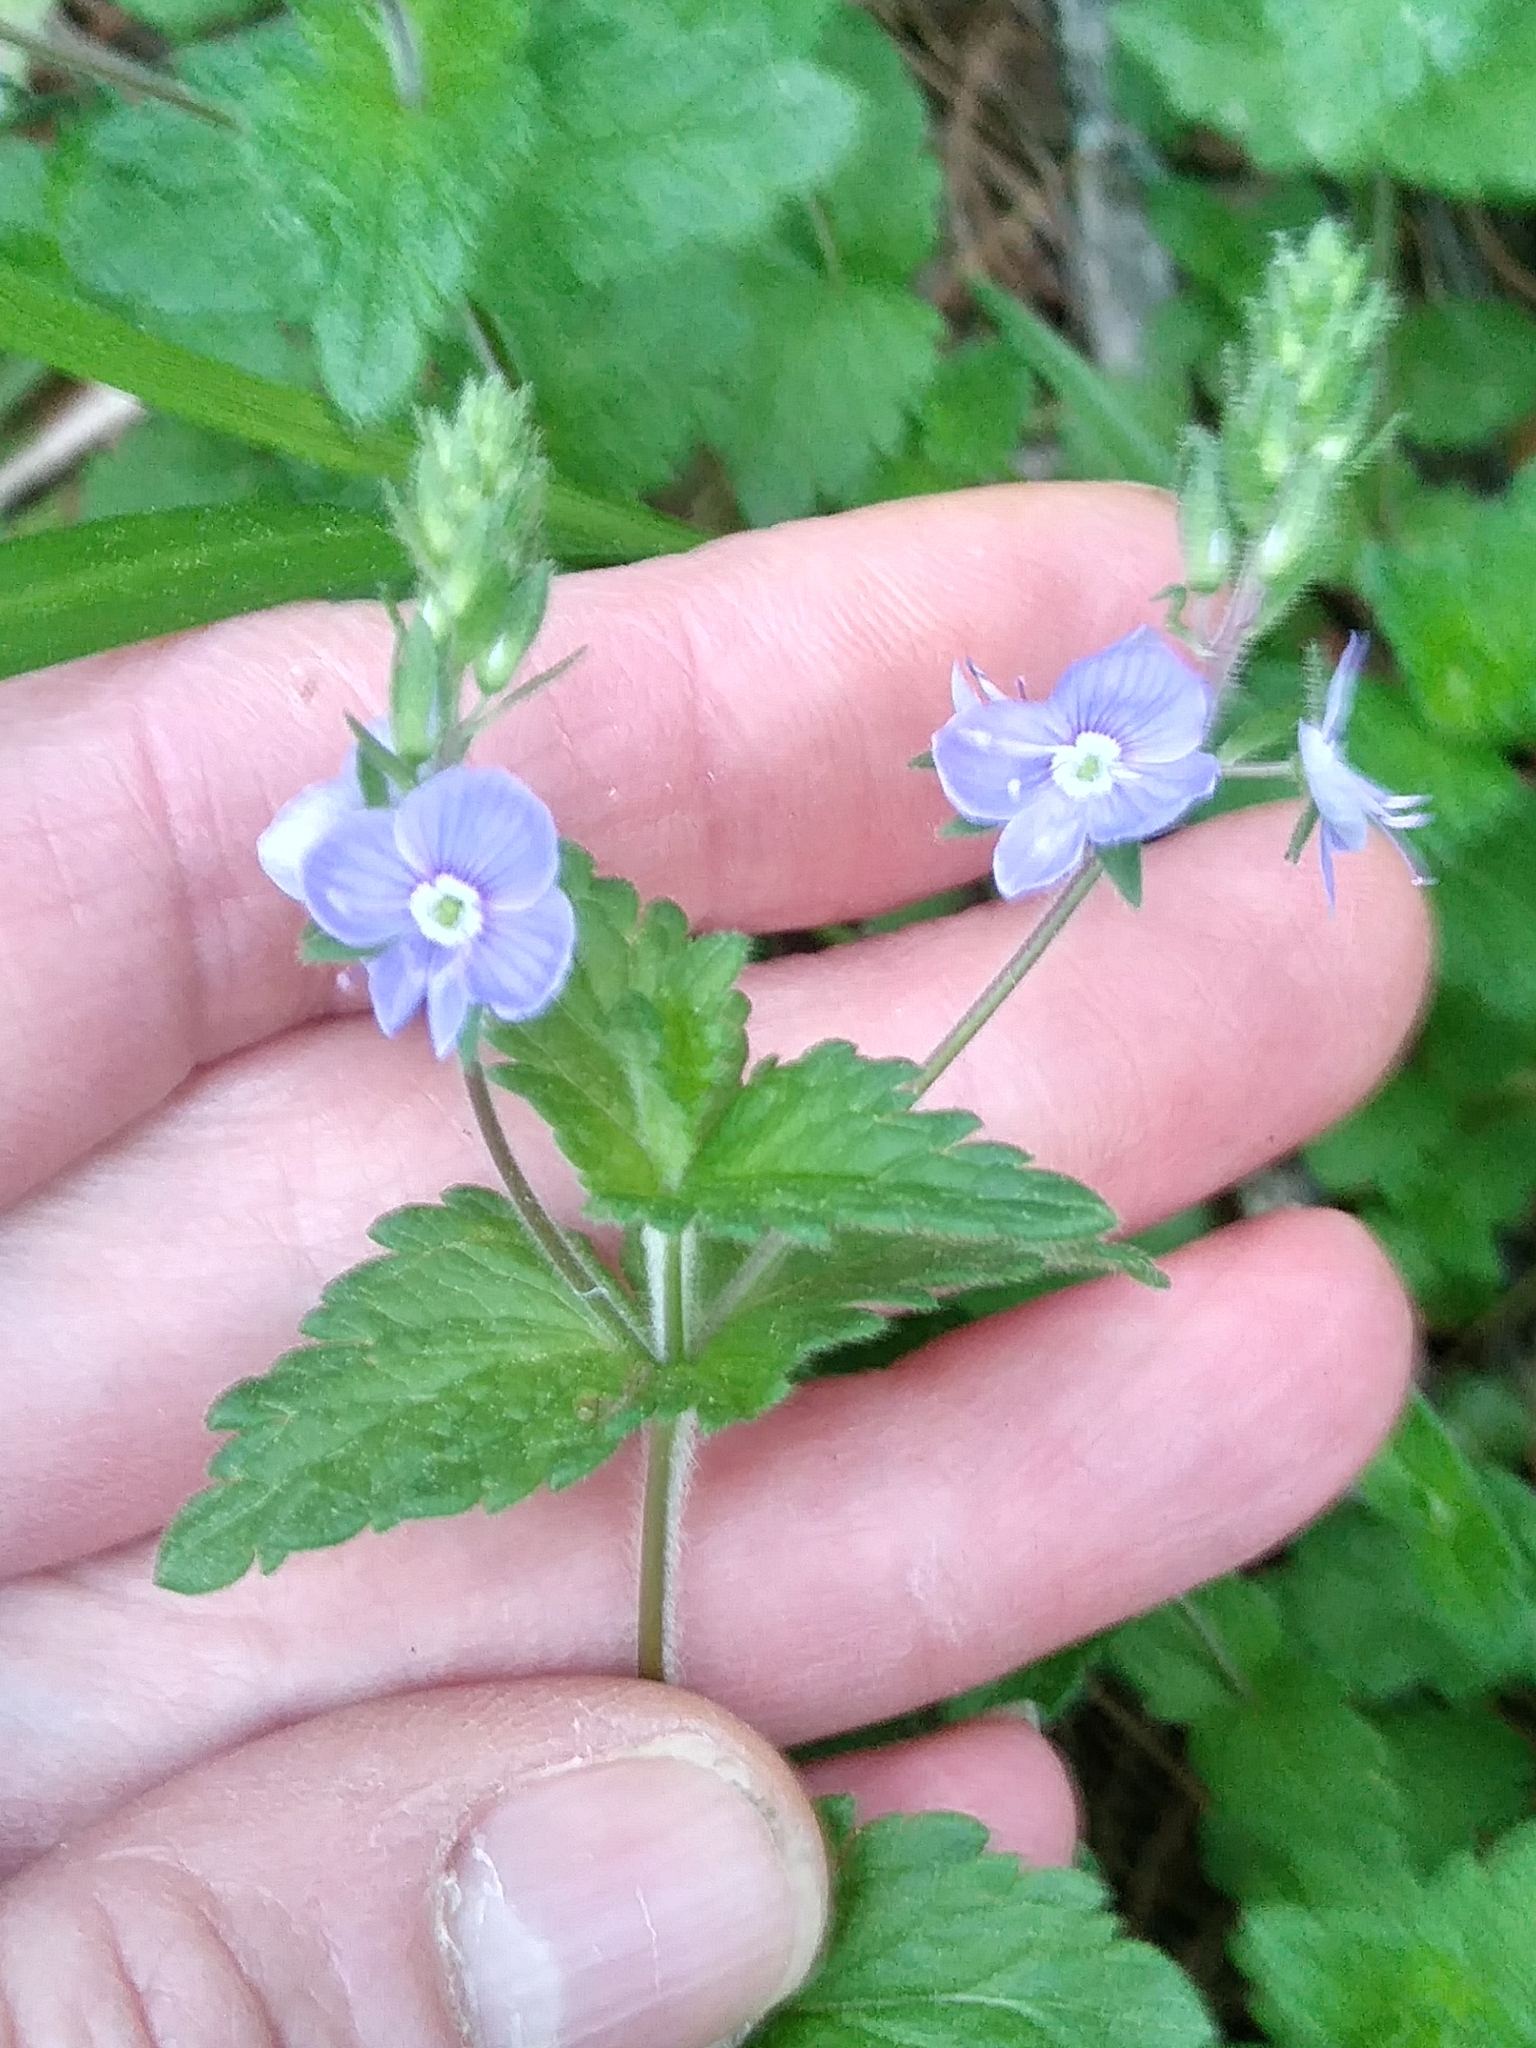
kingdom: Plantae
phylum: Tracheophyta
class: Magnoliopsida
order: Lamiales
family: Plantaginaceae
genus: Veronica
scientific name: Veronica chamaedrys
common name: Germander speedwell
